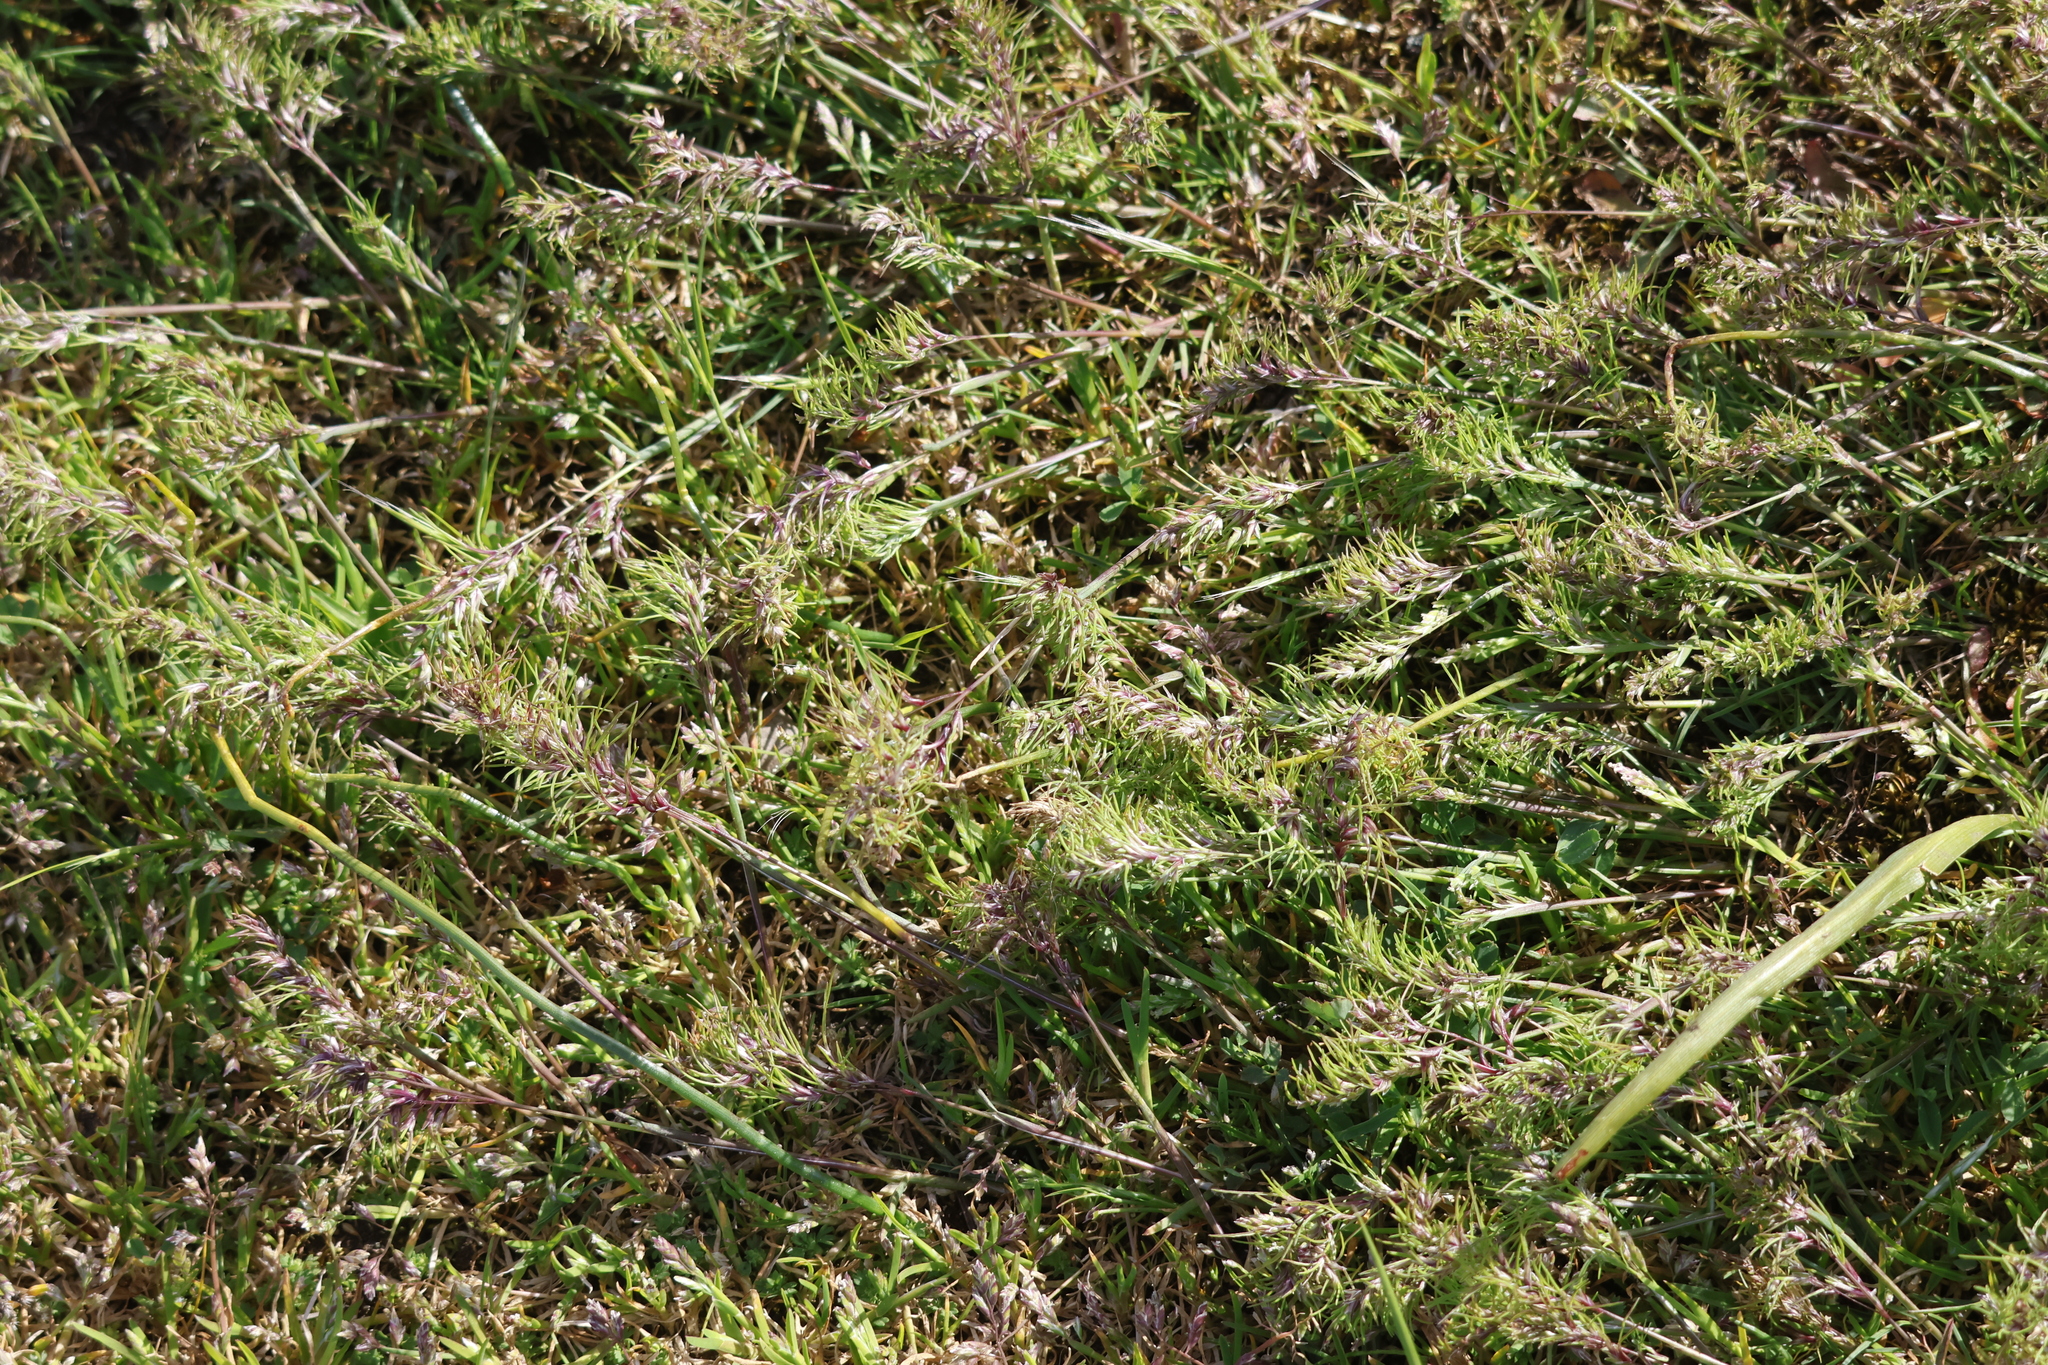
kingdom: Plantae
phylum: Tracheophyta
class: Liliopsida
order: Poales
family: Poaceae
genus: Poa
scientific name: Poa bulbosa
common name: Bulbous bluegrass
